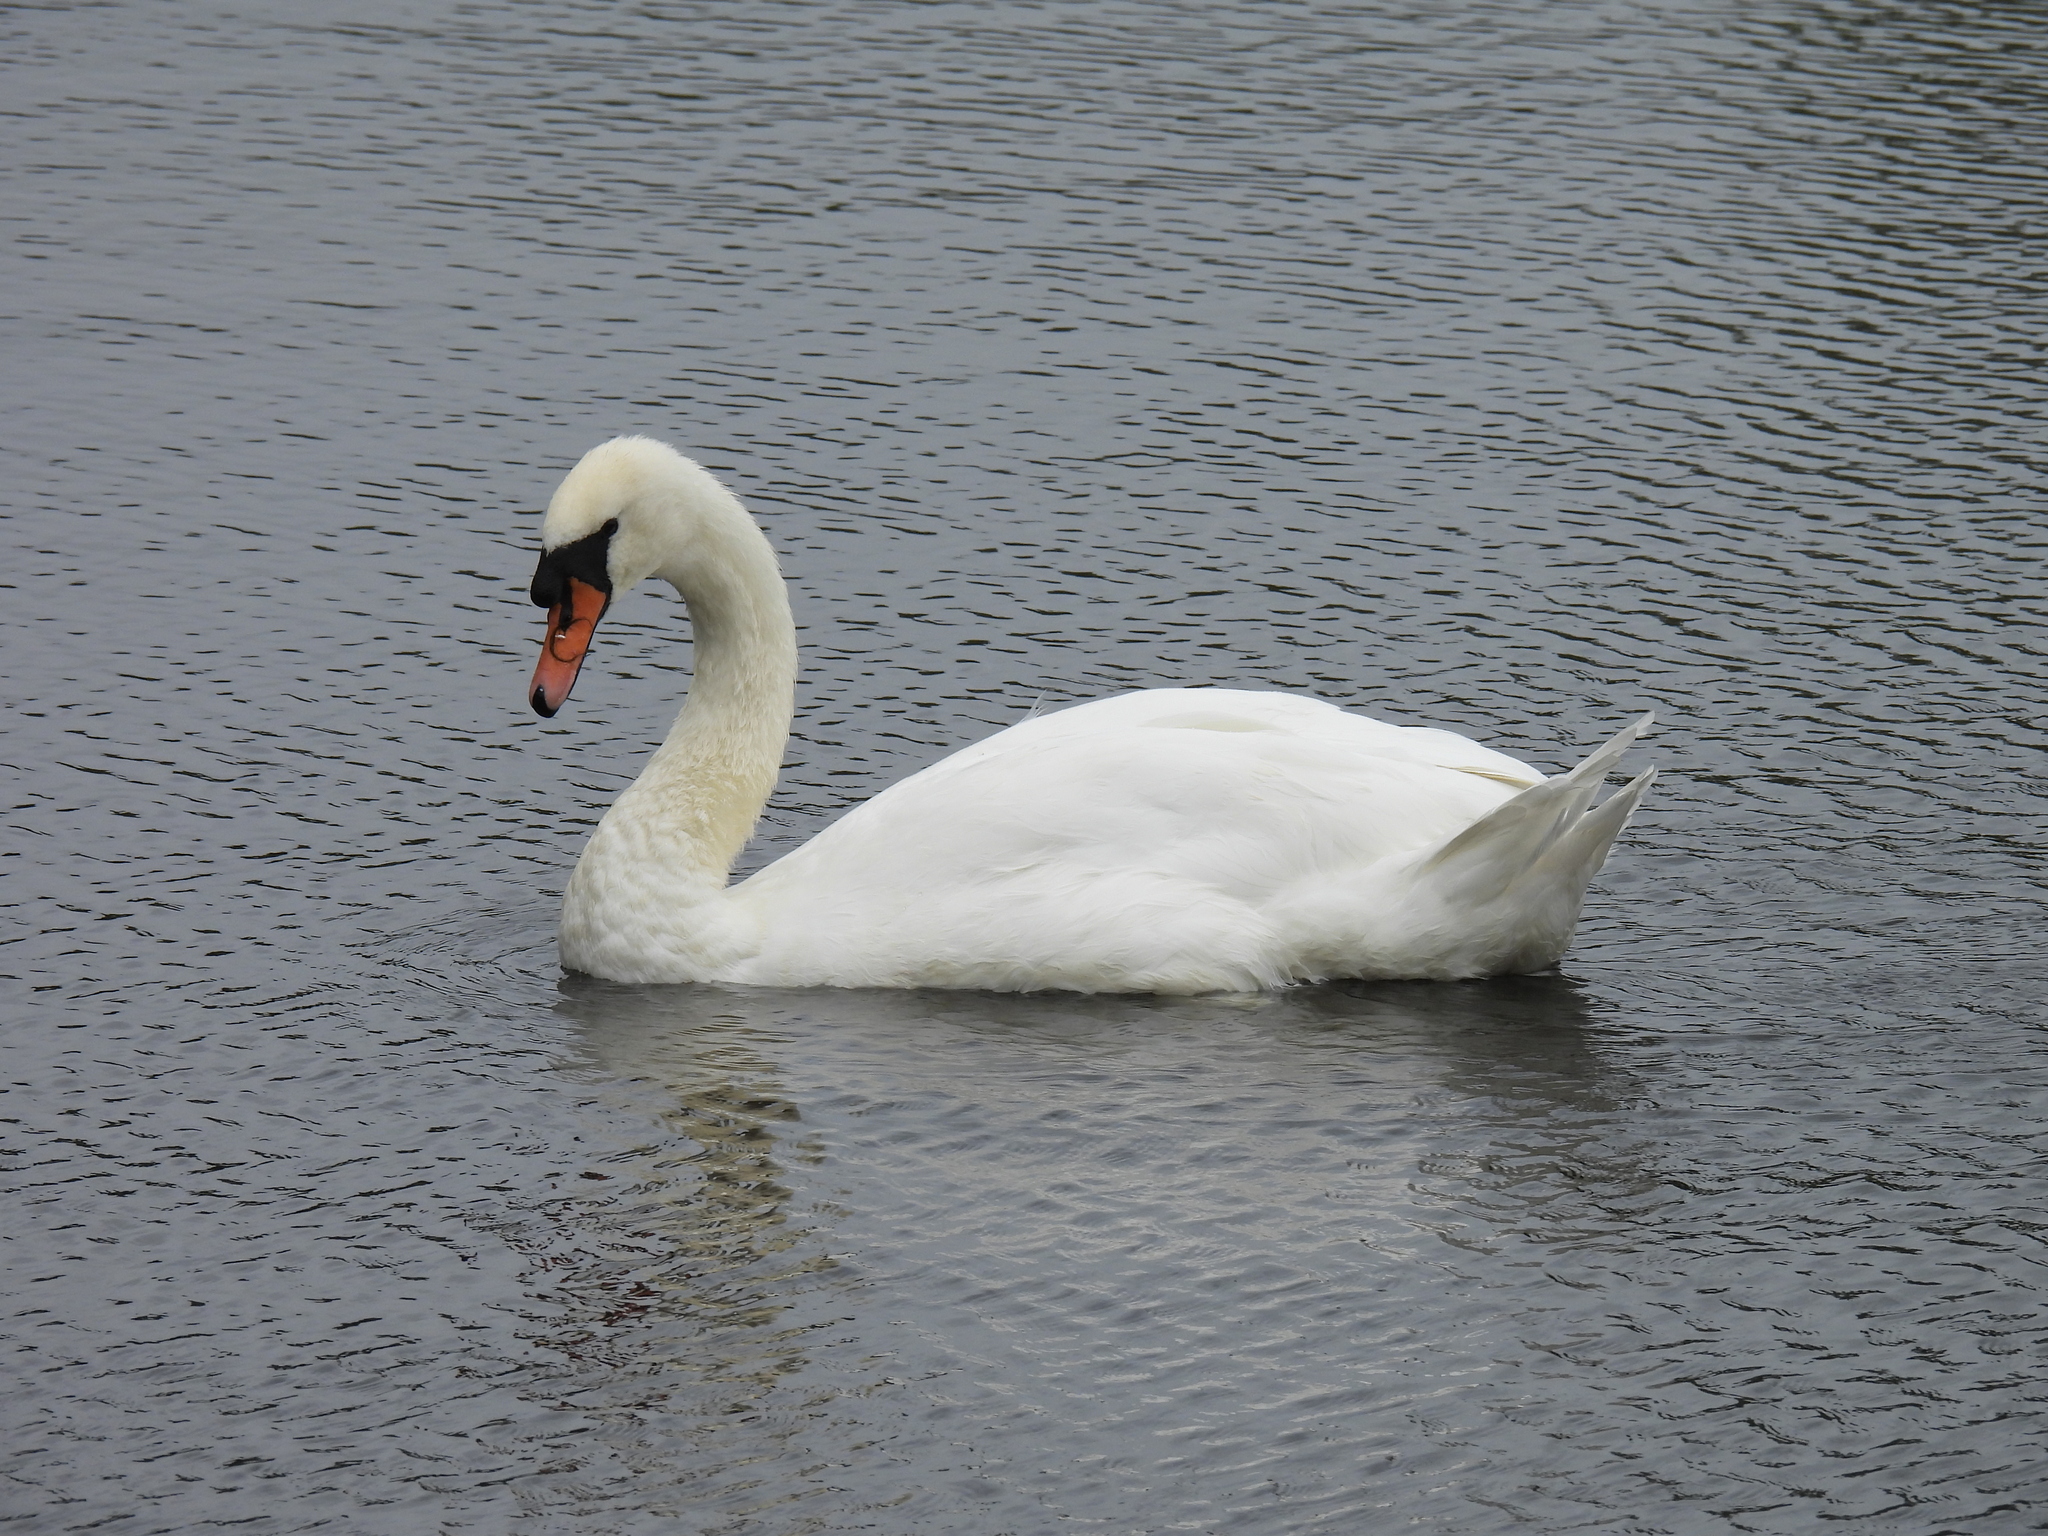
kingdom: Animalia
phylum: Chordata
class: Aves
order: Anseriformes
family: Anatidae
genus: Cygnus
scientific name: Cygnus olor
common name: Mute swan
